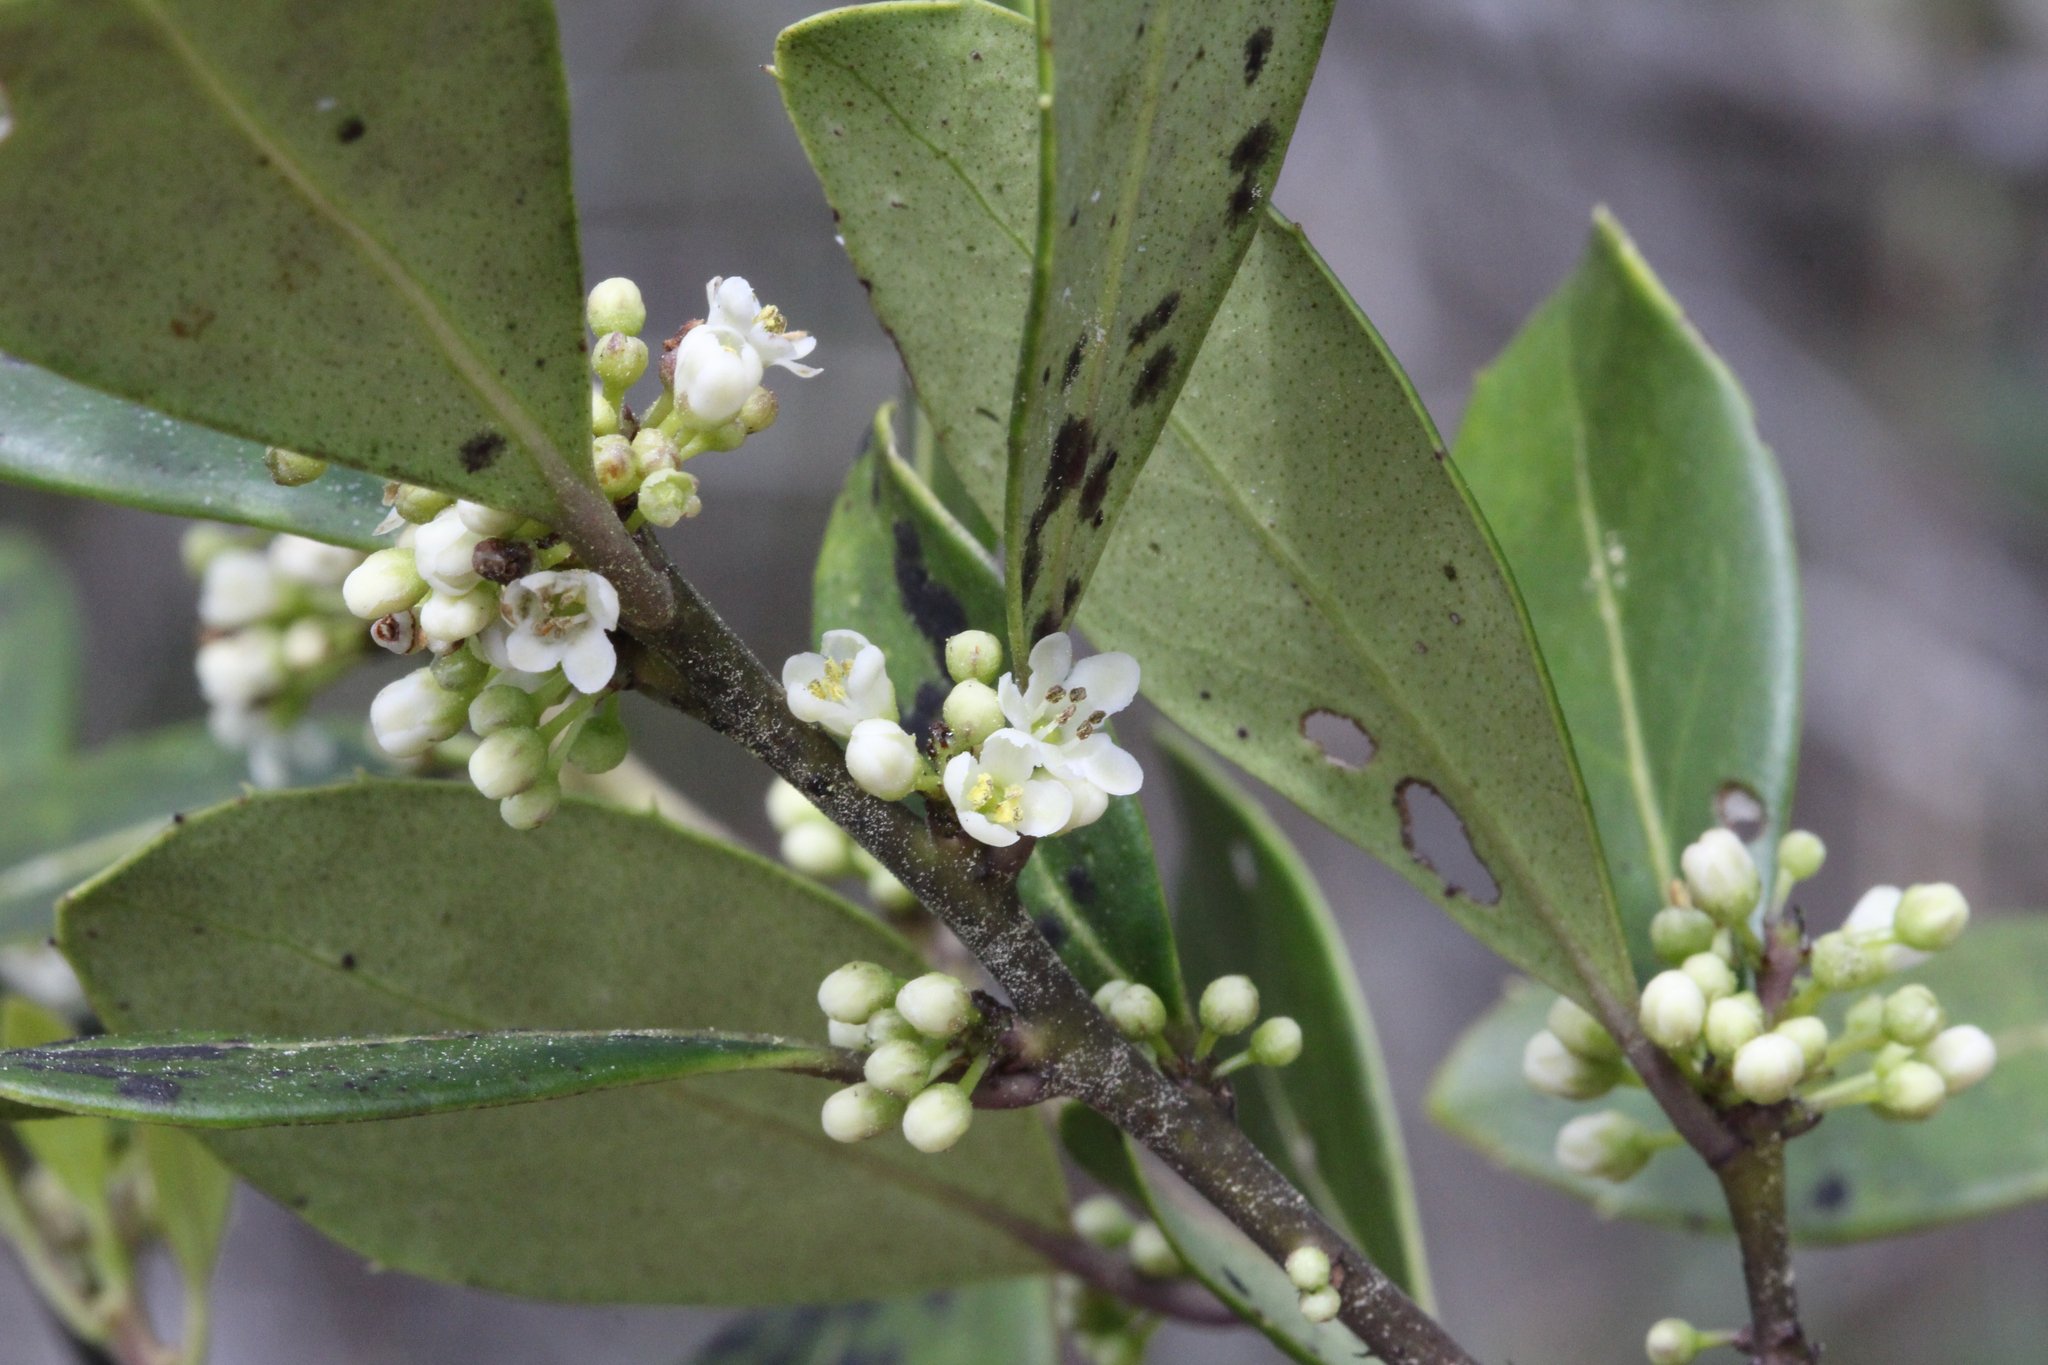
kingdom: Plantae
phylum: Tracheophyta
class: Magnoliopsida
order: Aquifoliales
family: Aquifoliaceae
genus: Ilex
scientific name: Ilex coriacea
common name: Sweet gallberry
